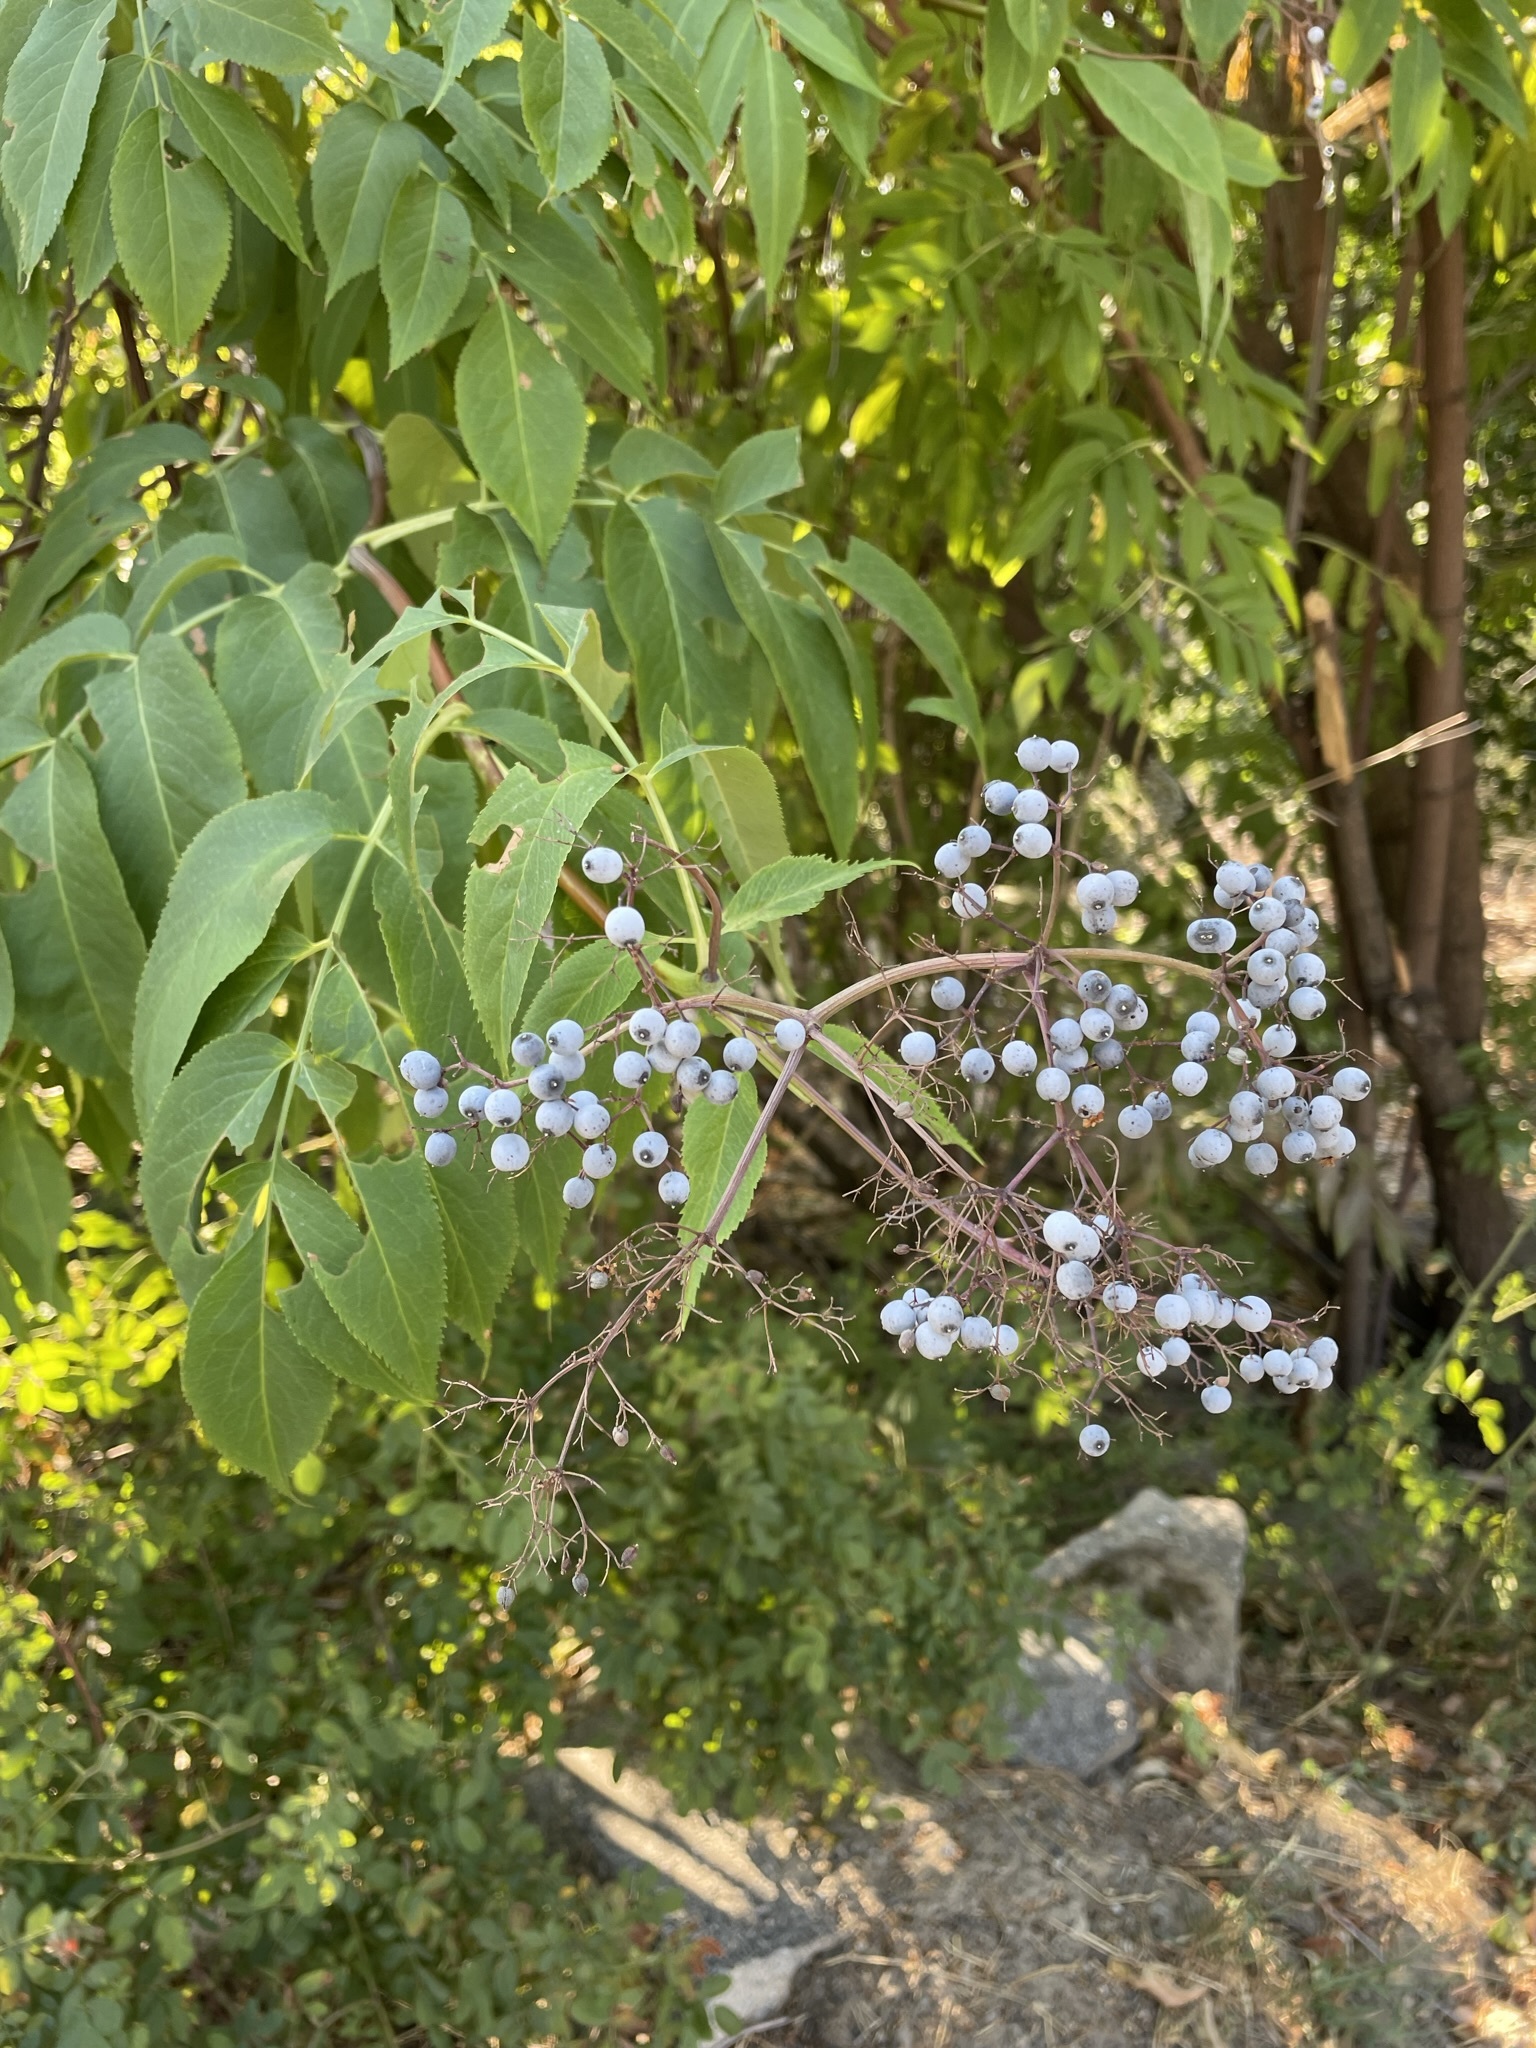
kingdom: Plantae
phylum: Tracheophyta
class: Magnoliopsida
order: Dipsacales
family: Viburnaceae
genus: Sambucus
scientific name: Sambucus cerulea
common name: Blue elder
